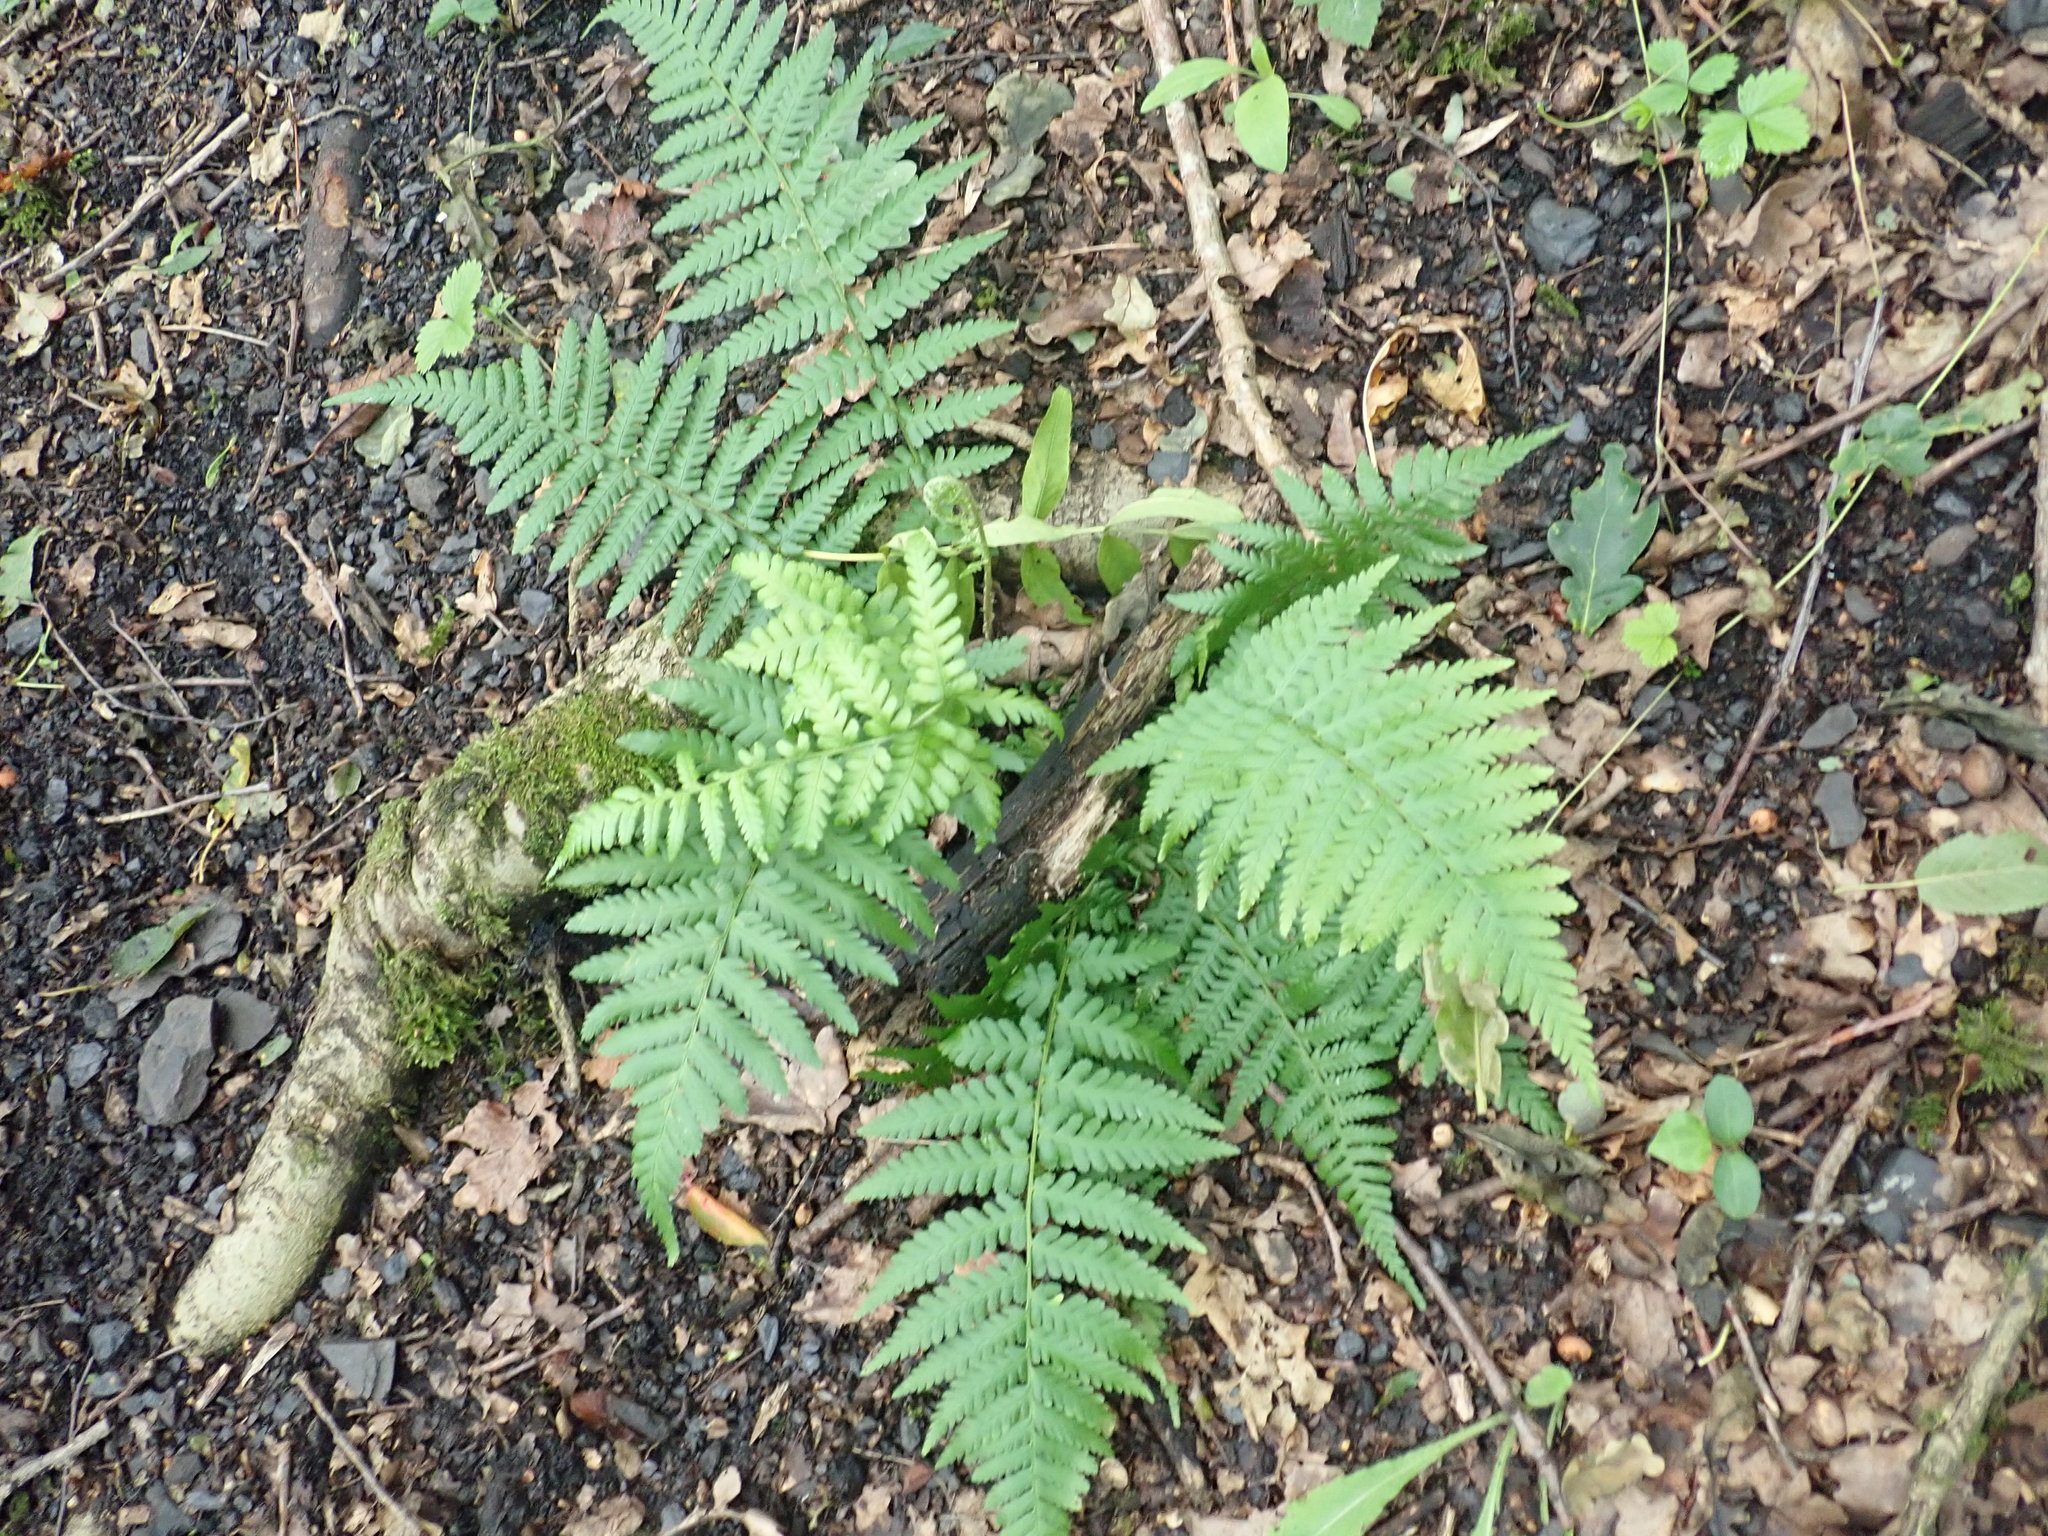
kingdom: Plantae
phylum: Tracheophyta
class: Polypodiopsida
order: Polypodiales
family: Dryopteridaceae
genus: Dryopteris
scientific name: Dryopteris filix-mas
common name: Male fern
